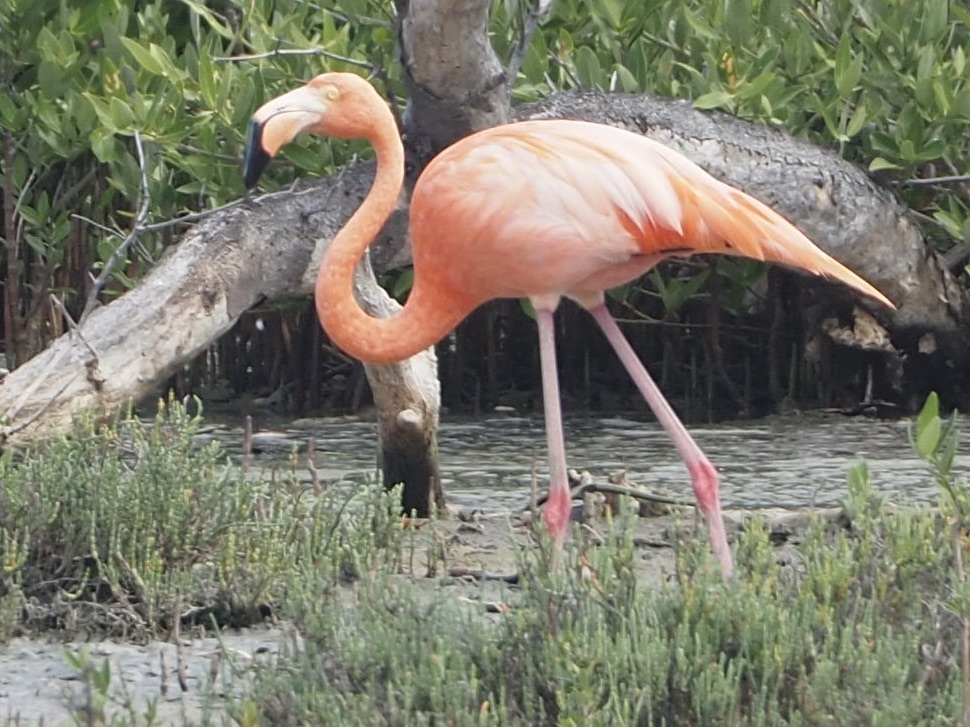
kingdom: Animalia
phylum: Chordata
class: Aves
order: Phoenicopteriformes
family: Phoenicopteridae
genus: Phoenicopterus
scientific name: Phoenicopterus ruber
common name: American flamingo
